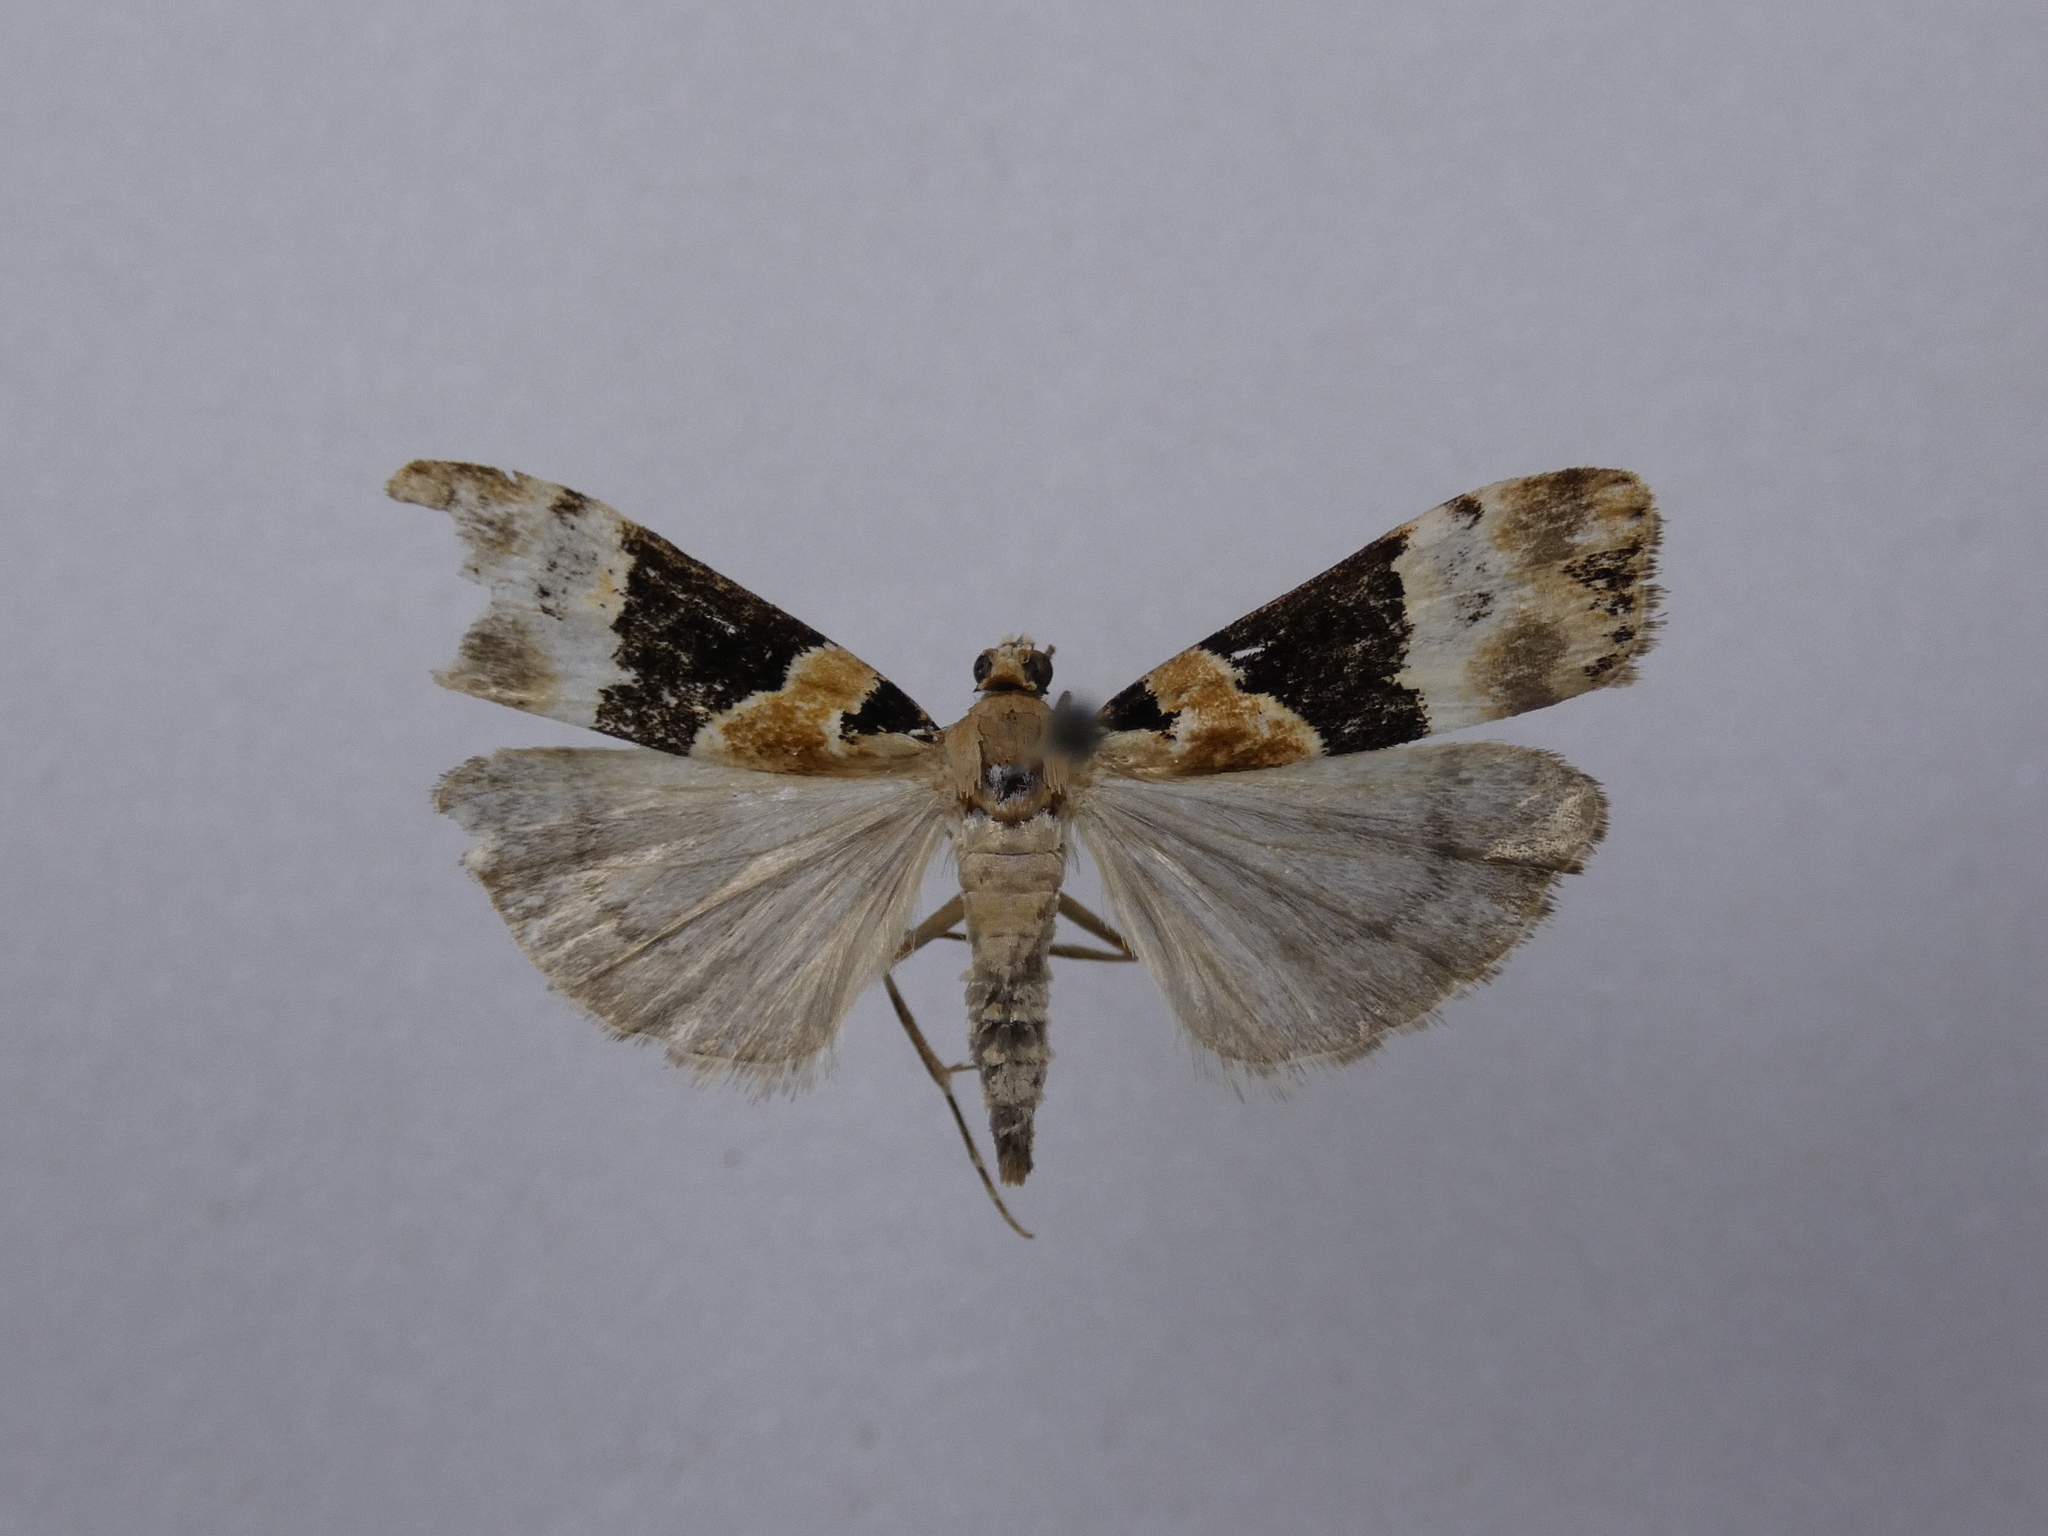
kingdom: Animalia
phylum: Arthropoda
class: Insecta
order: Lepidoptera
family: Crambidae
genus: Eudonia
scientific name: Eudonia aspidota
